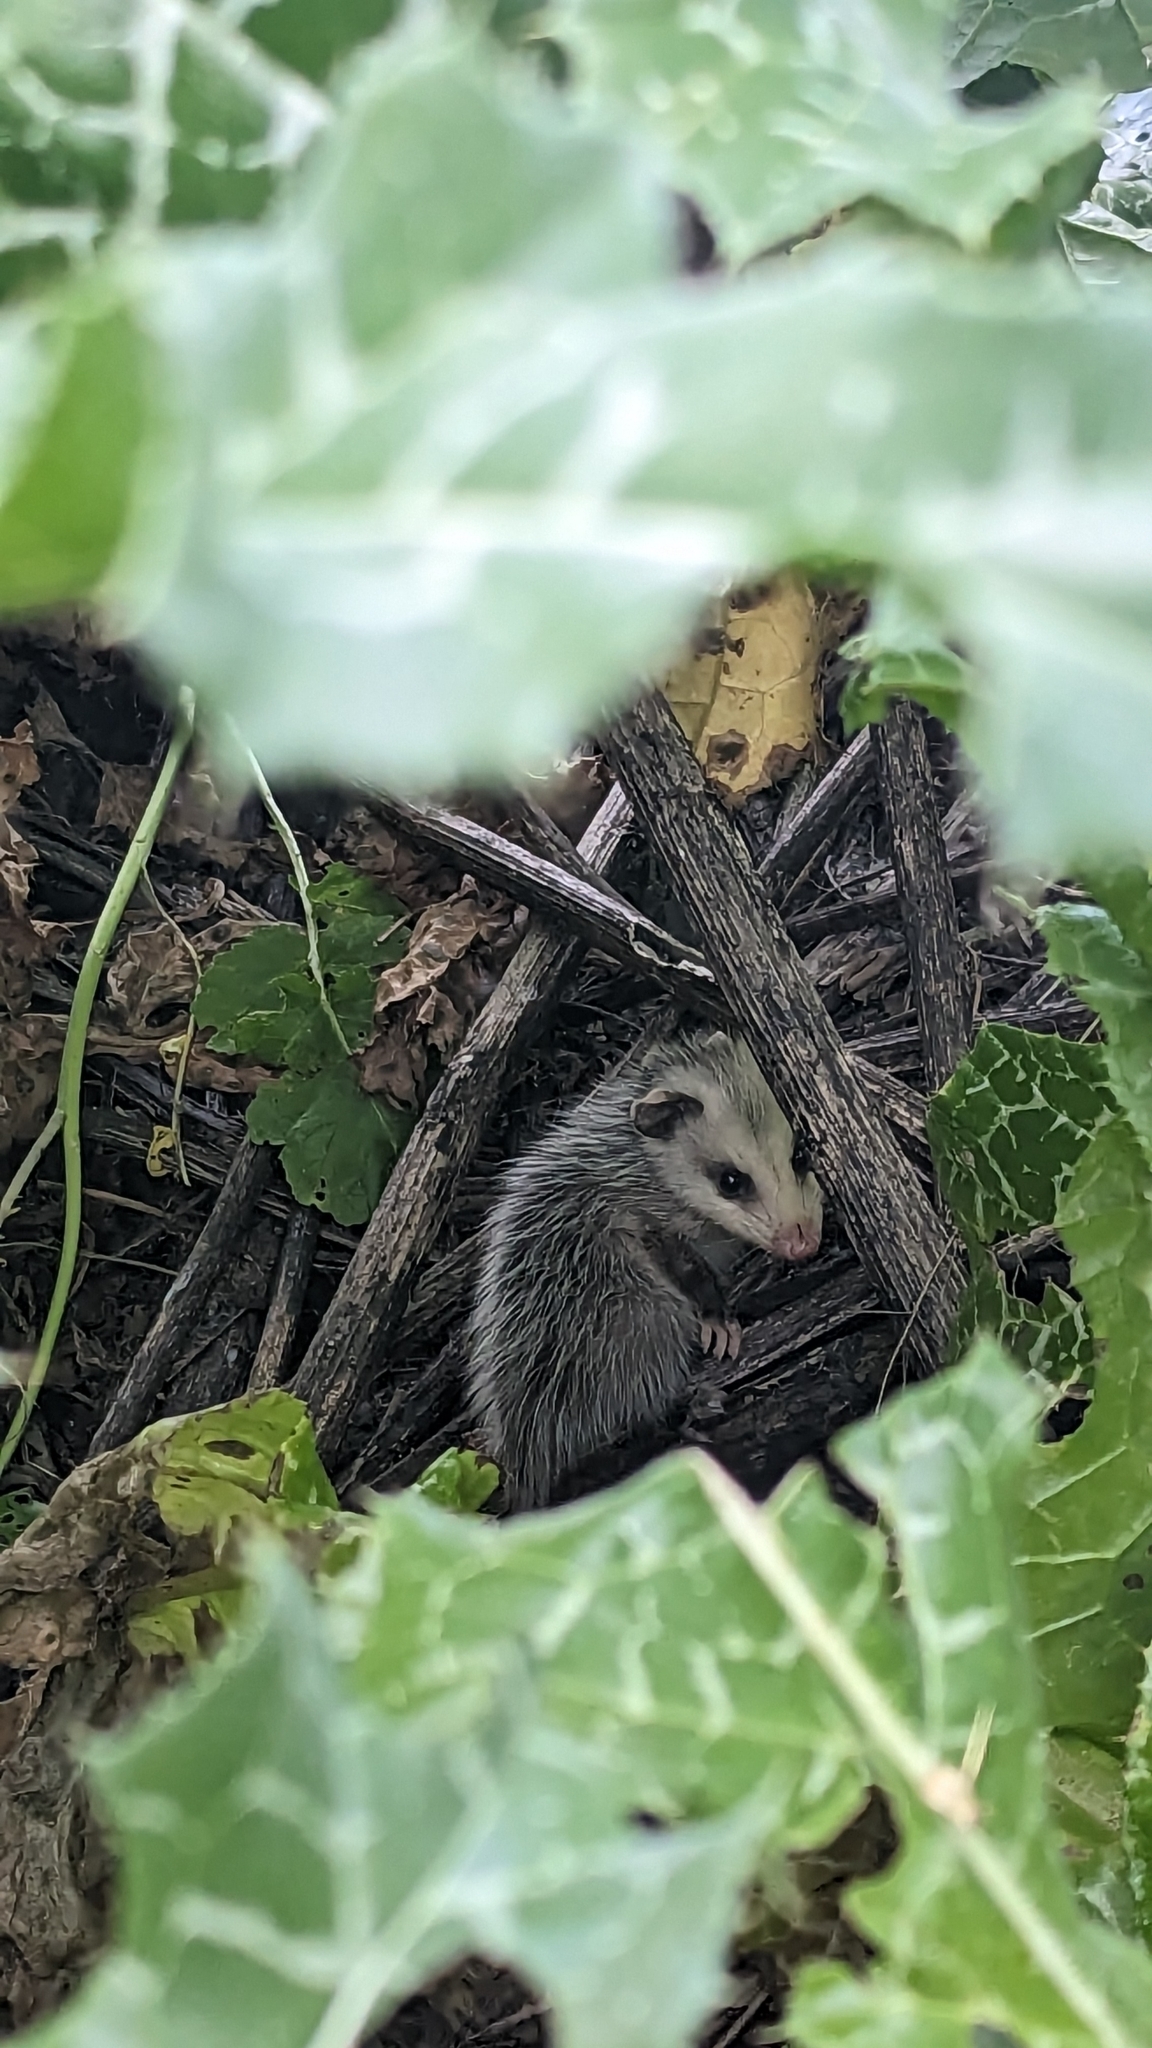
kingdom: Animalia
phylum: Chordata
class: Mammalia
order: Didelphimorphia
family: Didelphidae
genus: Didelphis
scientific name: Didelphis virginiana
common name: Virginia opossum
